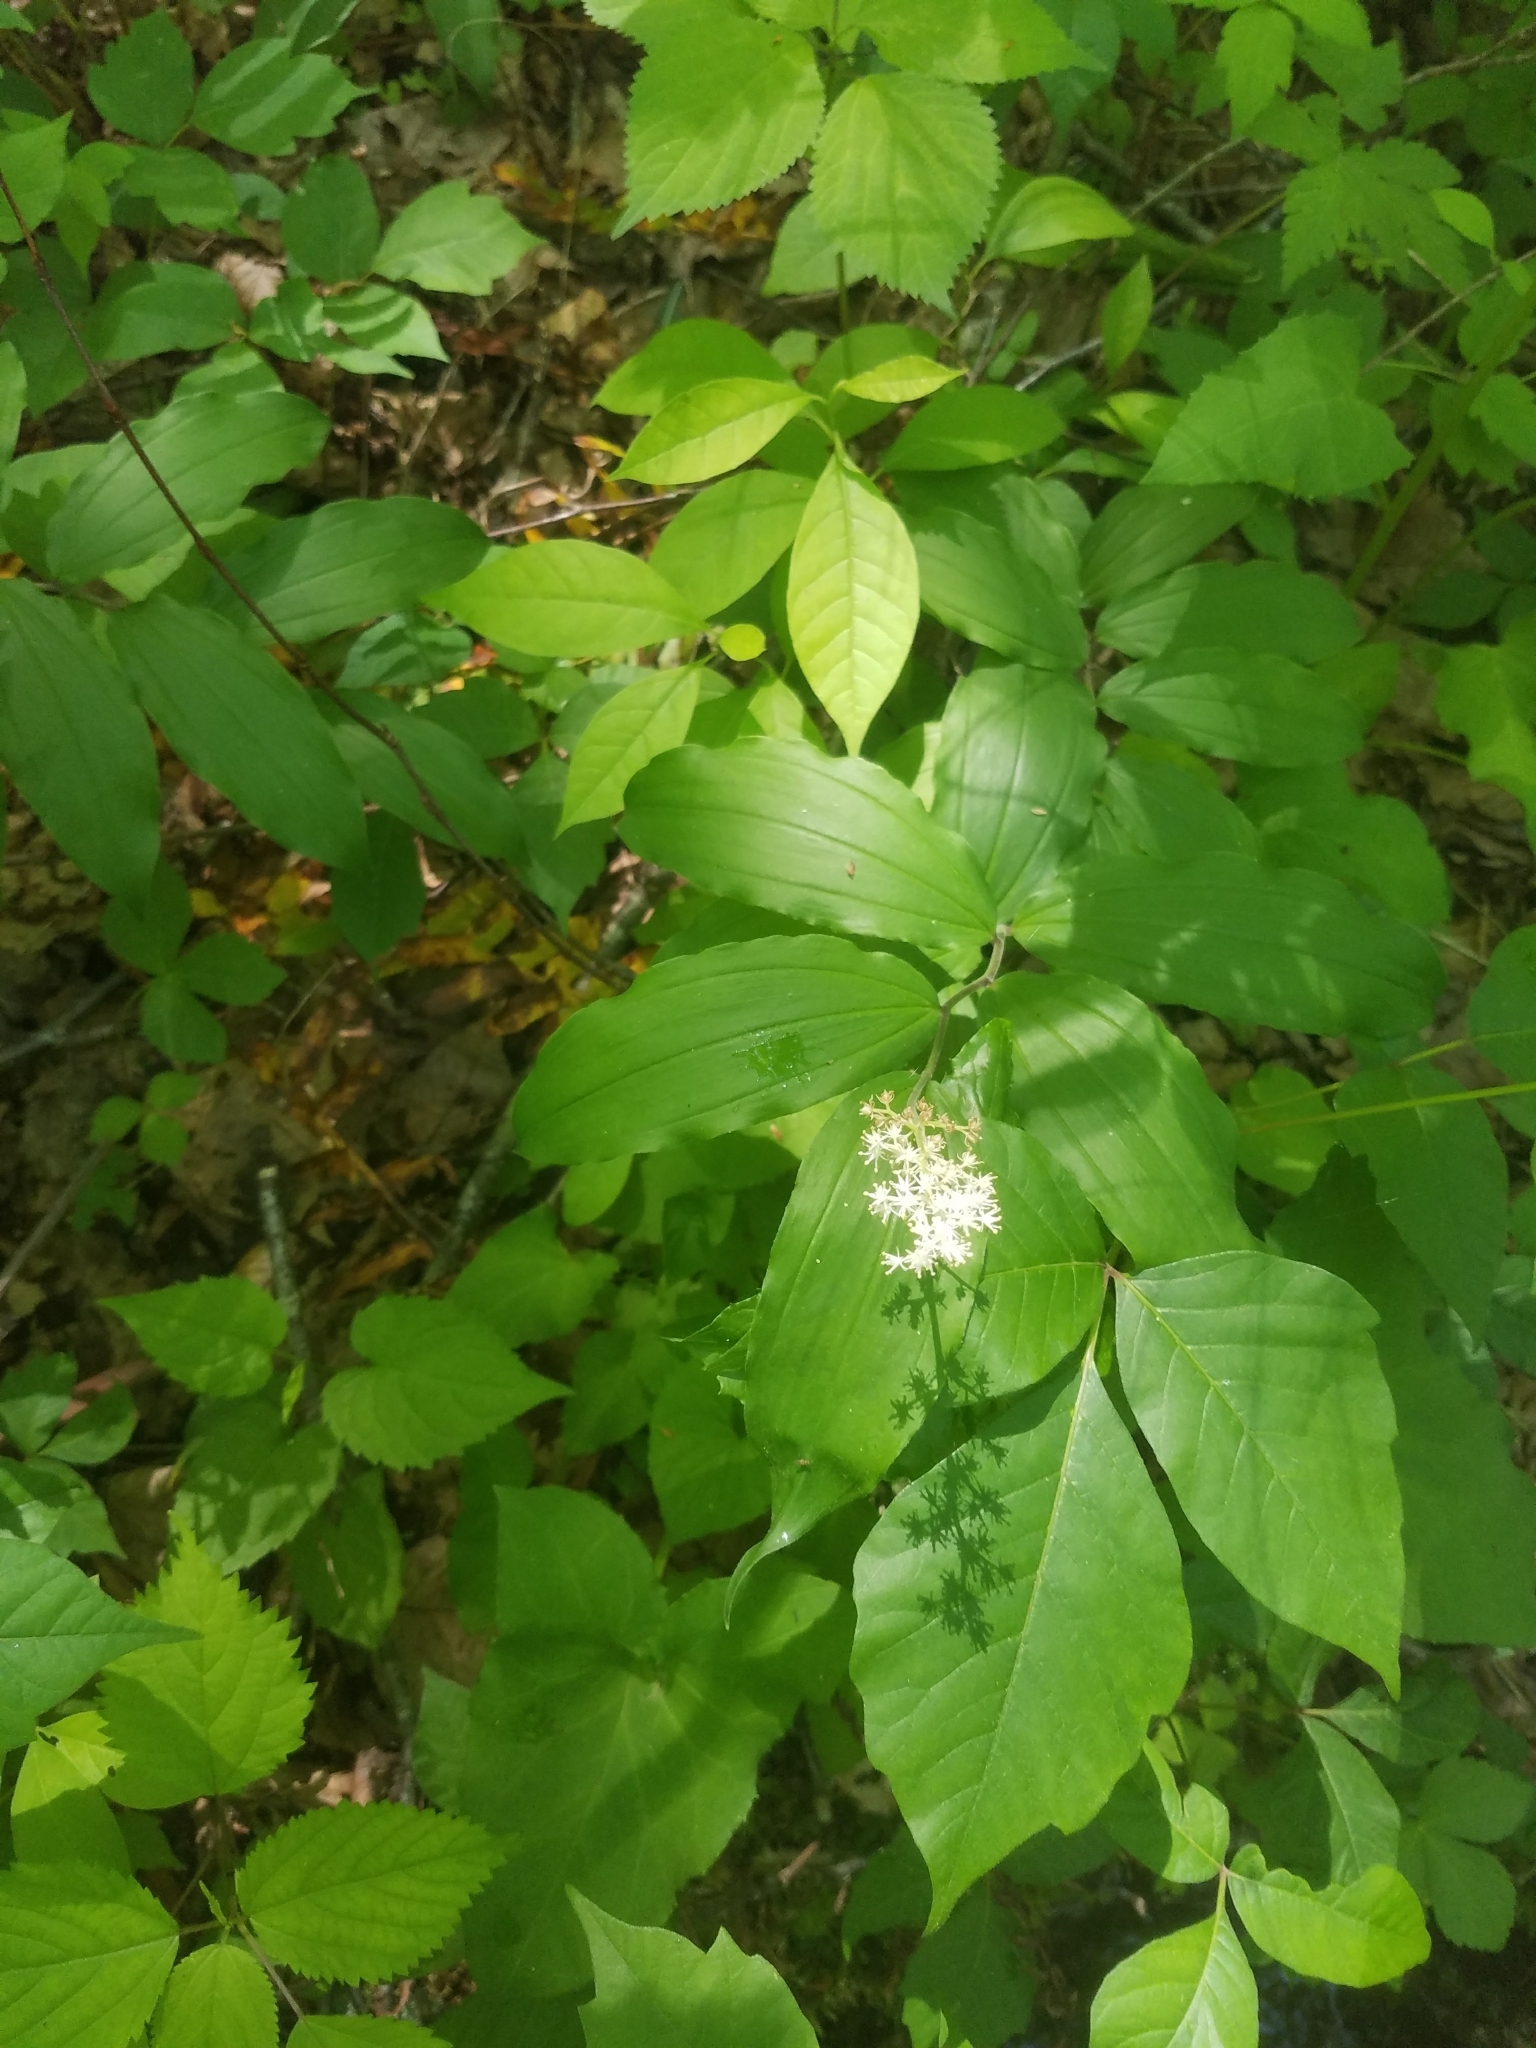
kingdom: Plantae
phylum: Tracheophyta
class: Liliopsida
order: Asparagales
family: Asparagaceae
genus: Maianthemum
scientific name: Maianthemum racemosum
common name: False spikenard
